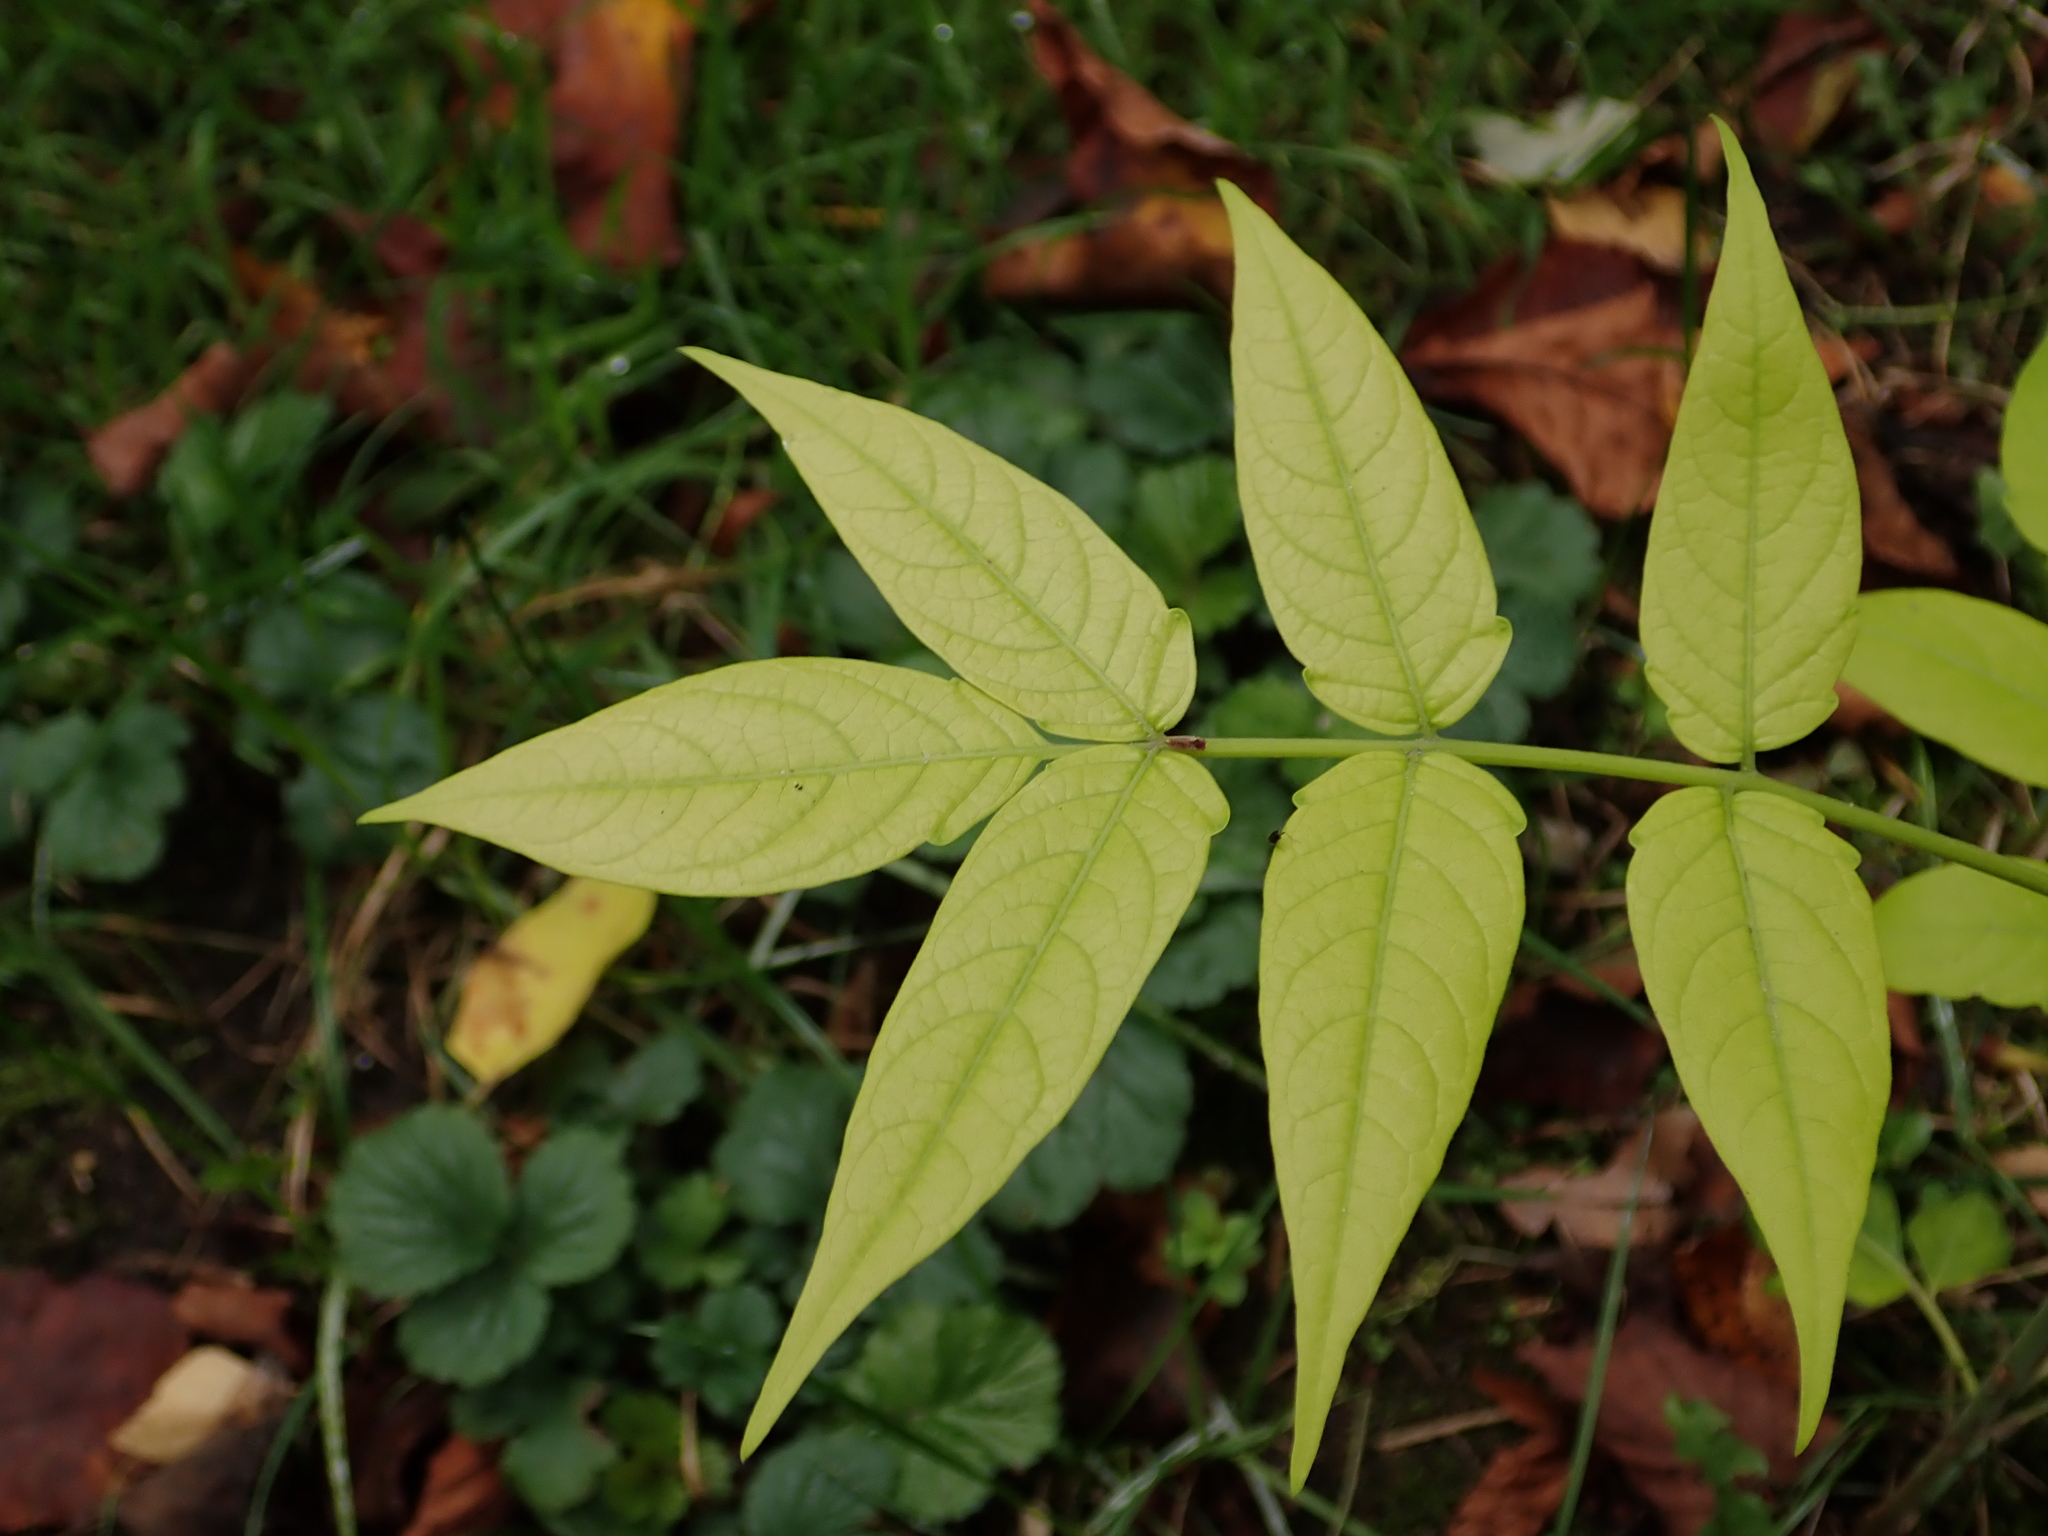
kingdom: Plantae
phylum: Tracheophyta
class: Magnoliopsida
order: Sapindales
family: Simaroubaceae
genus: Ailanthus
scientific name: Ailanthus altissima
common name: Tree-of-heaven
